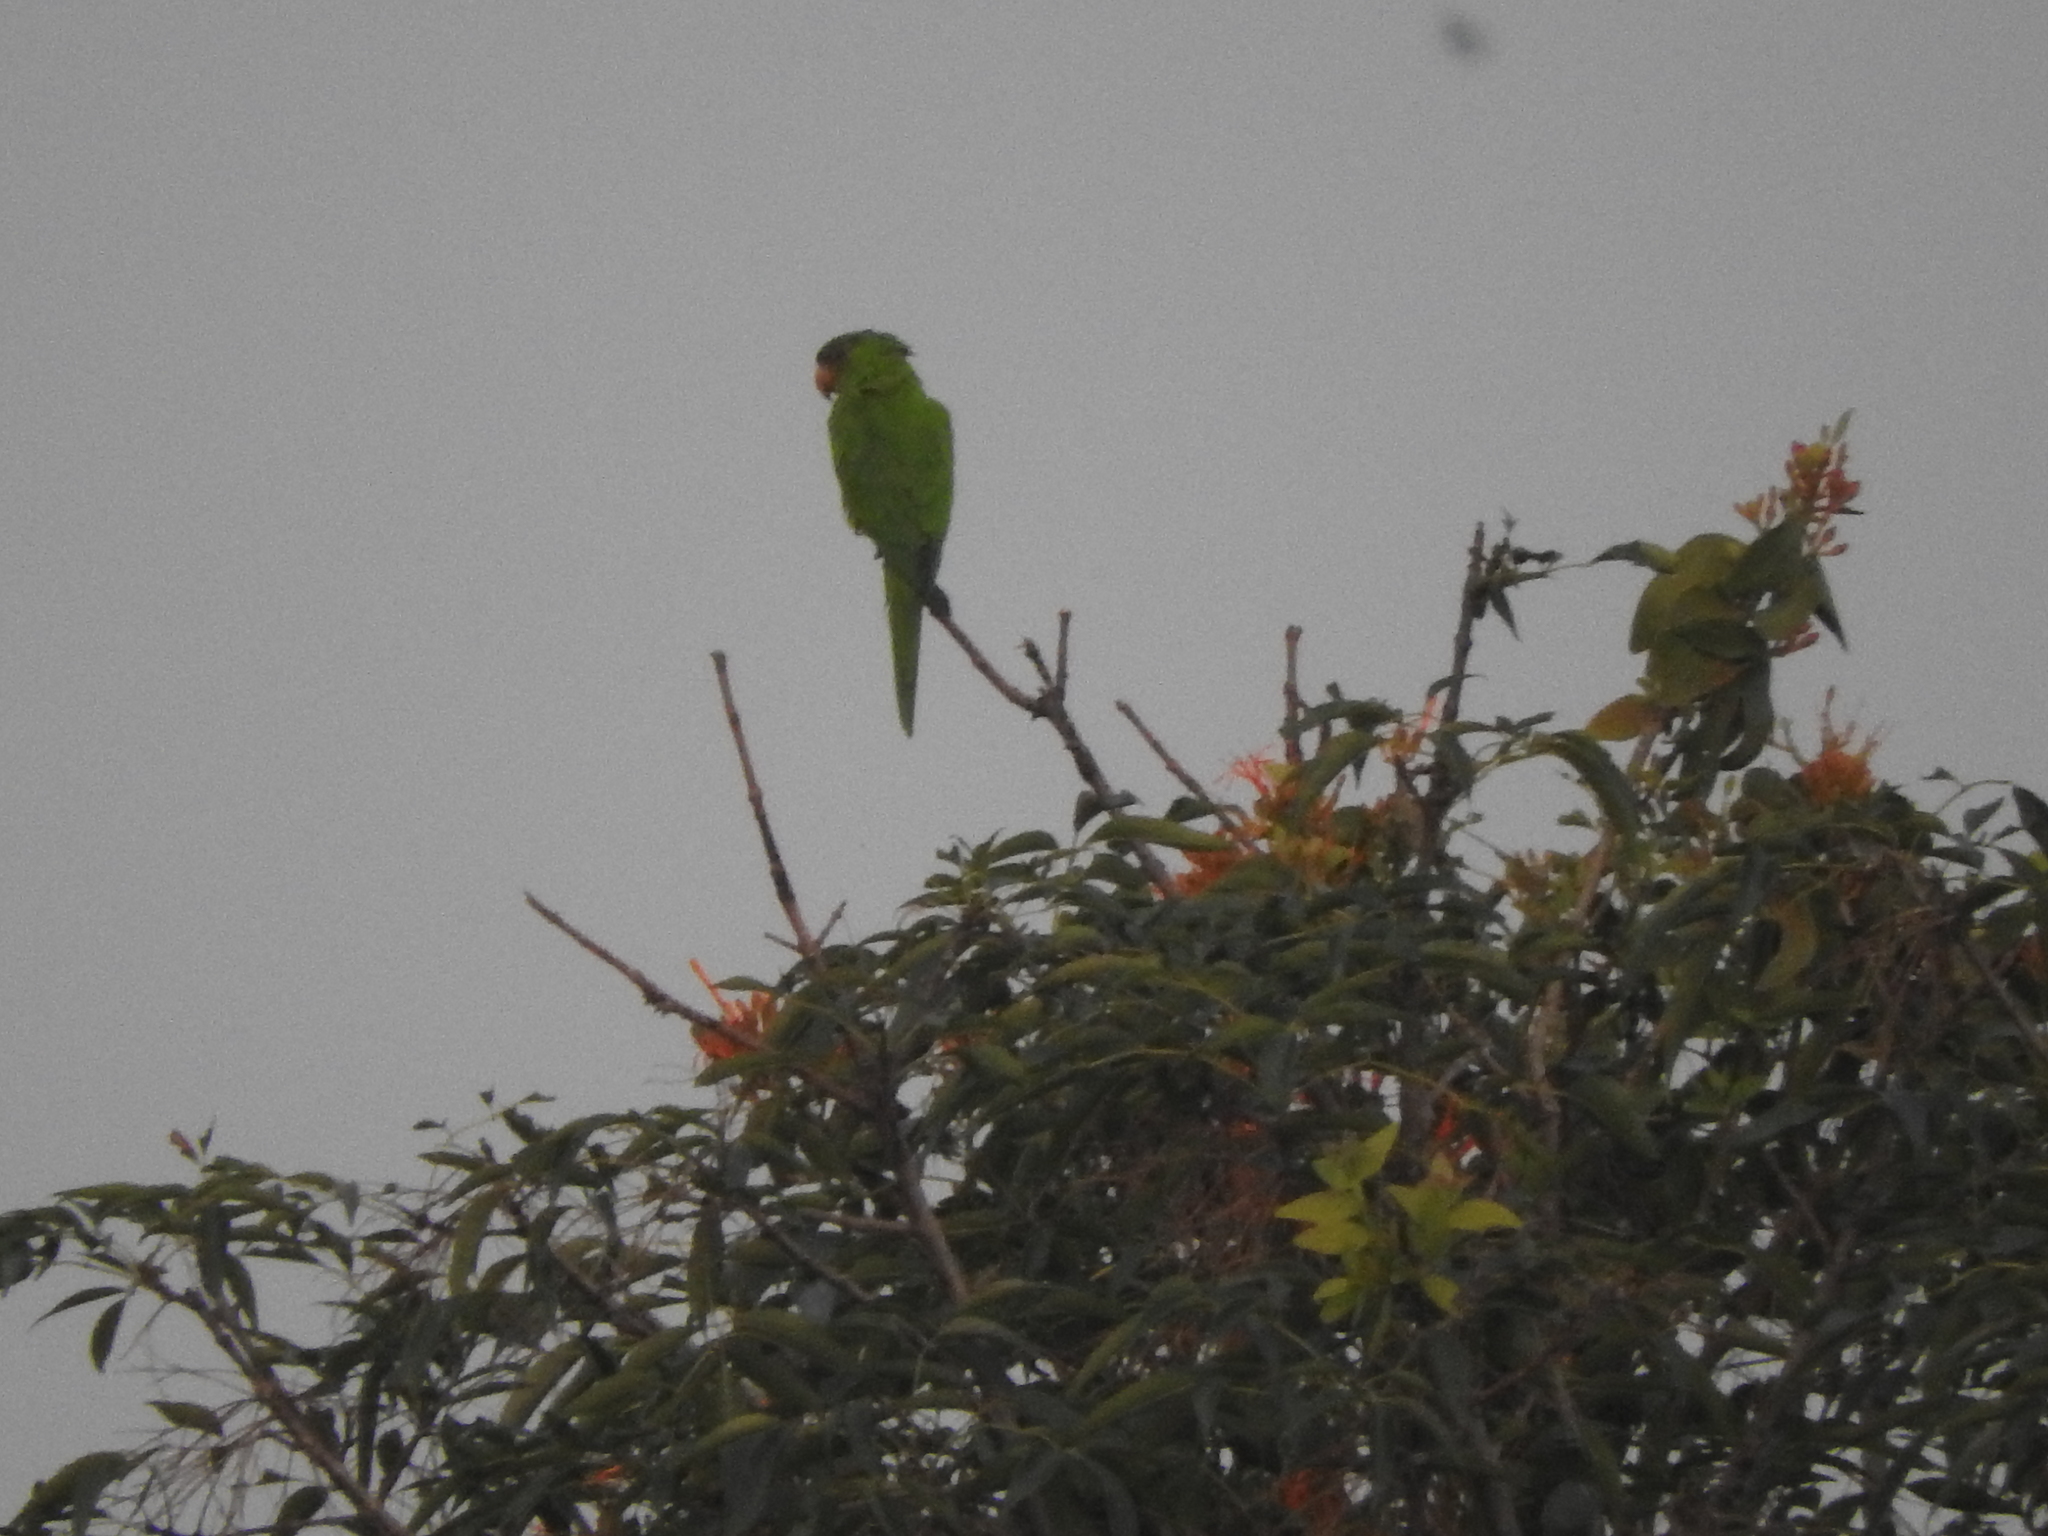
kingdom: Animalia
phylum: Chordata
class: Aves
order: Psittaciformes
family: Psittacidae
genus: Aratinga
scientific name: Aratinga holochlora
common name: Green parakeet
